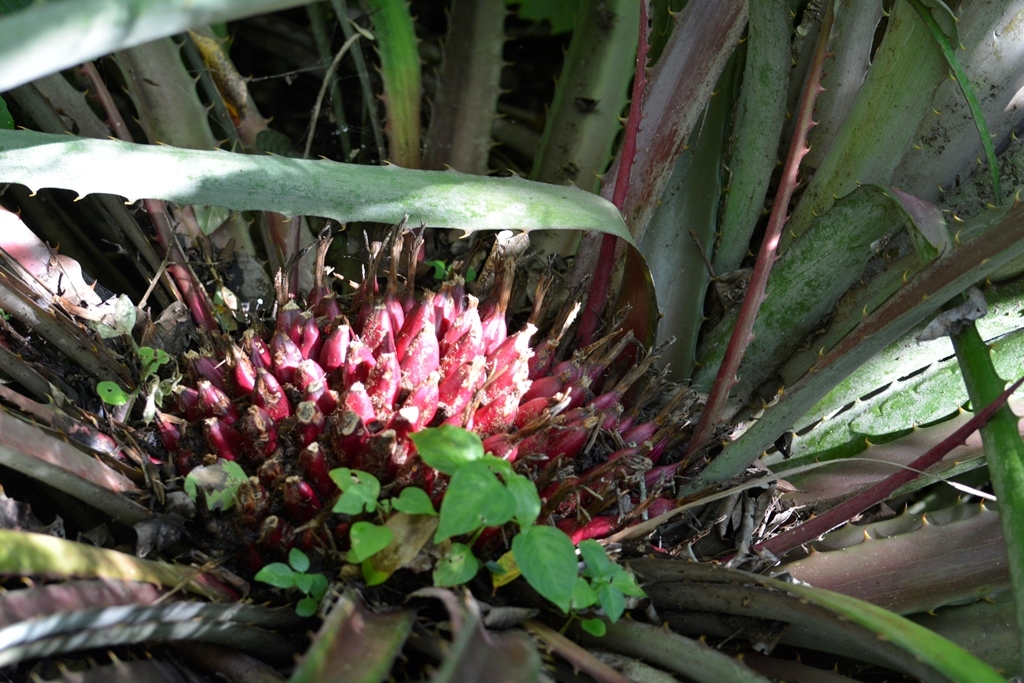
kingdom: Plantae
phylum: Tracheophyta
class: Liliopsida
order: Poales
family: Bromeliaceae
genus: Bromelia
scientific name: Bromelia karatas
